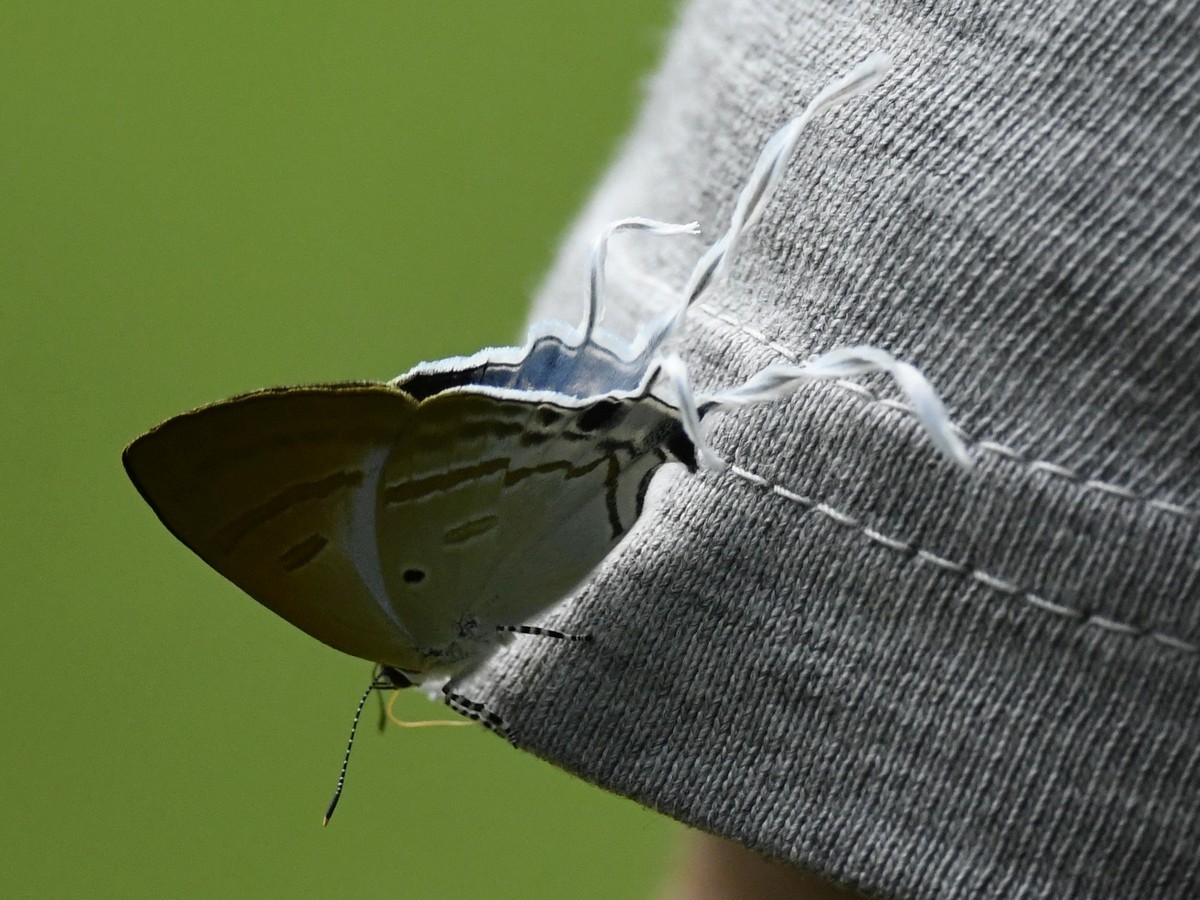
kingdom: Animalia
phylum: Arthropoda
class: Insecta
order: Lepidoptera
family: Lycaenidae
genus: Zeltus
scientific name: Zeltus amasa
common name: Fluffy tit
